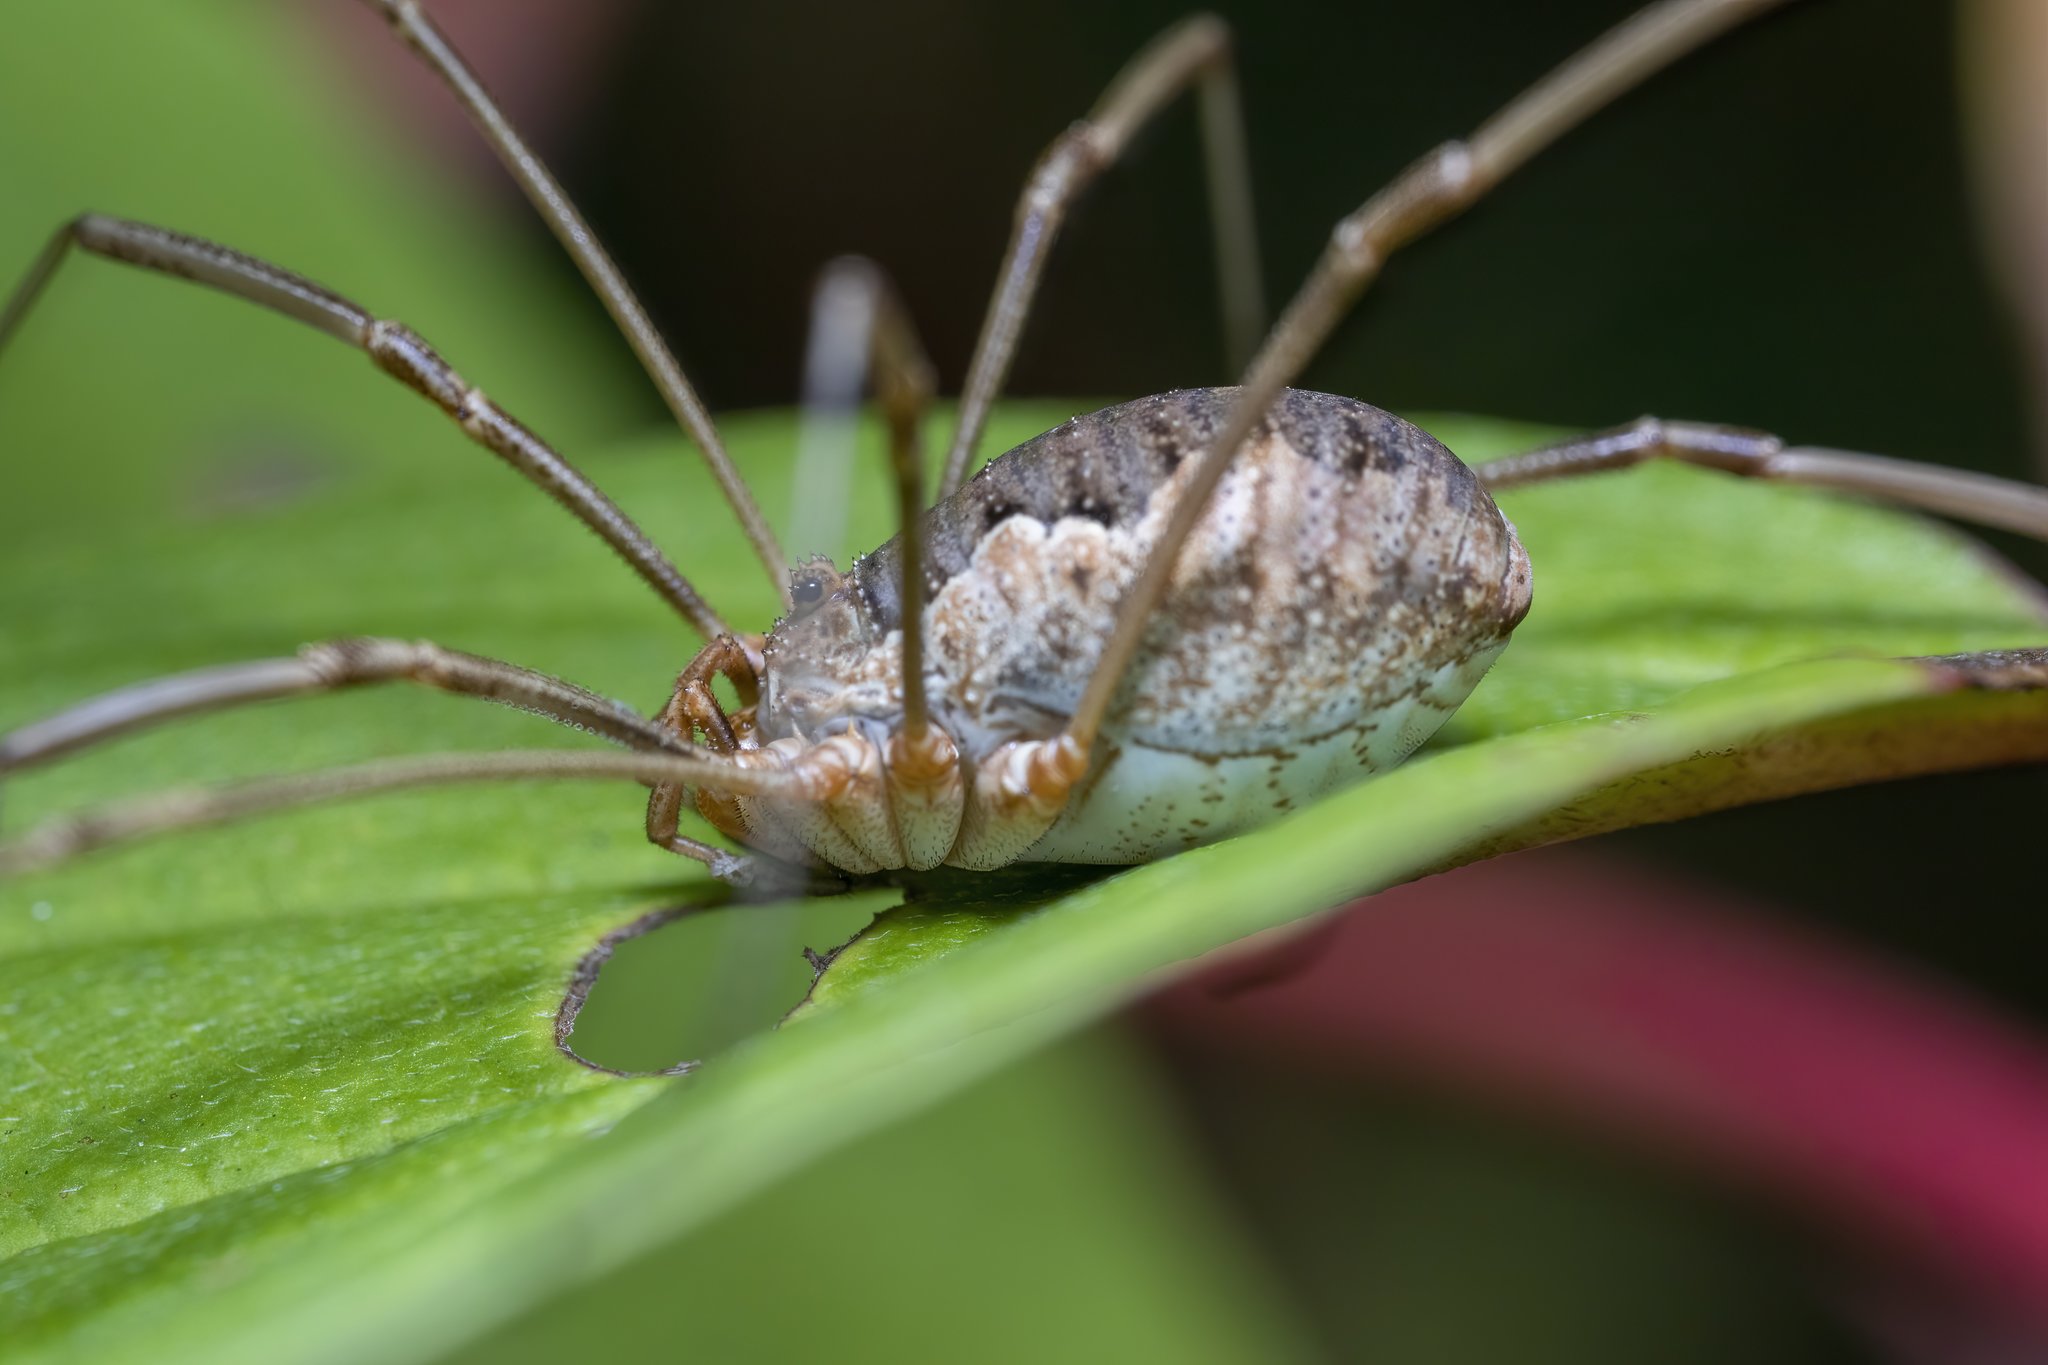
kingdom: Animalia
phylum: Arthropoda
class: Arachnida
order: Opiliones
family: Phalangiidae
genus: Phalangium
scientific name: Phalangium opilio
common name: Daddy longleg
